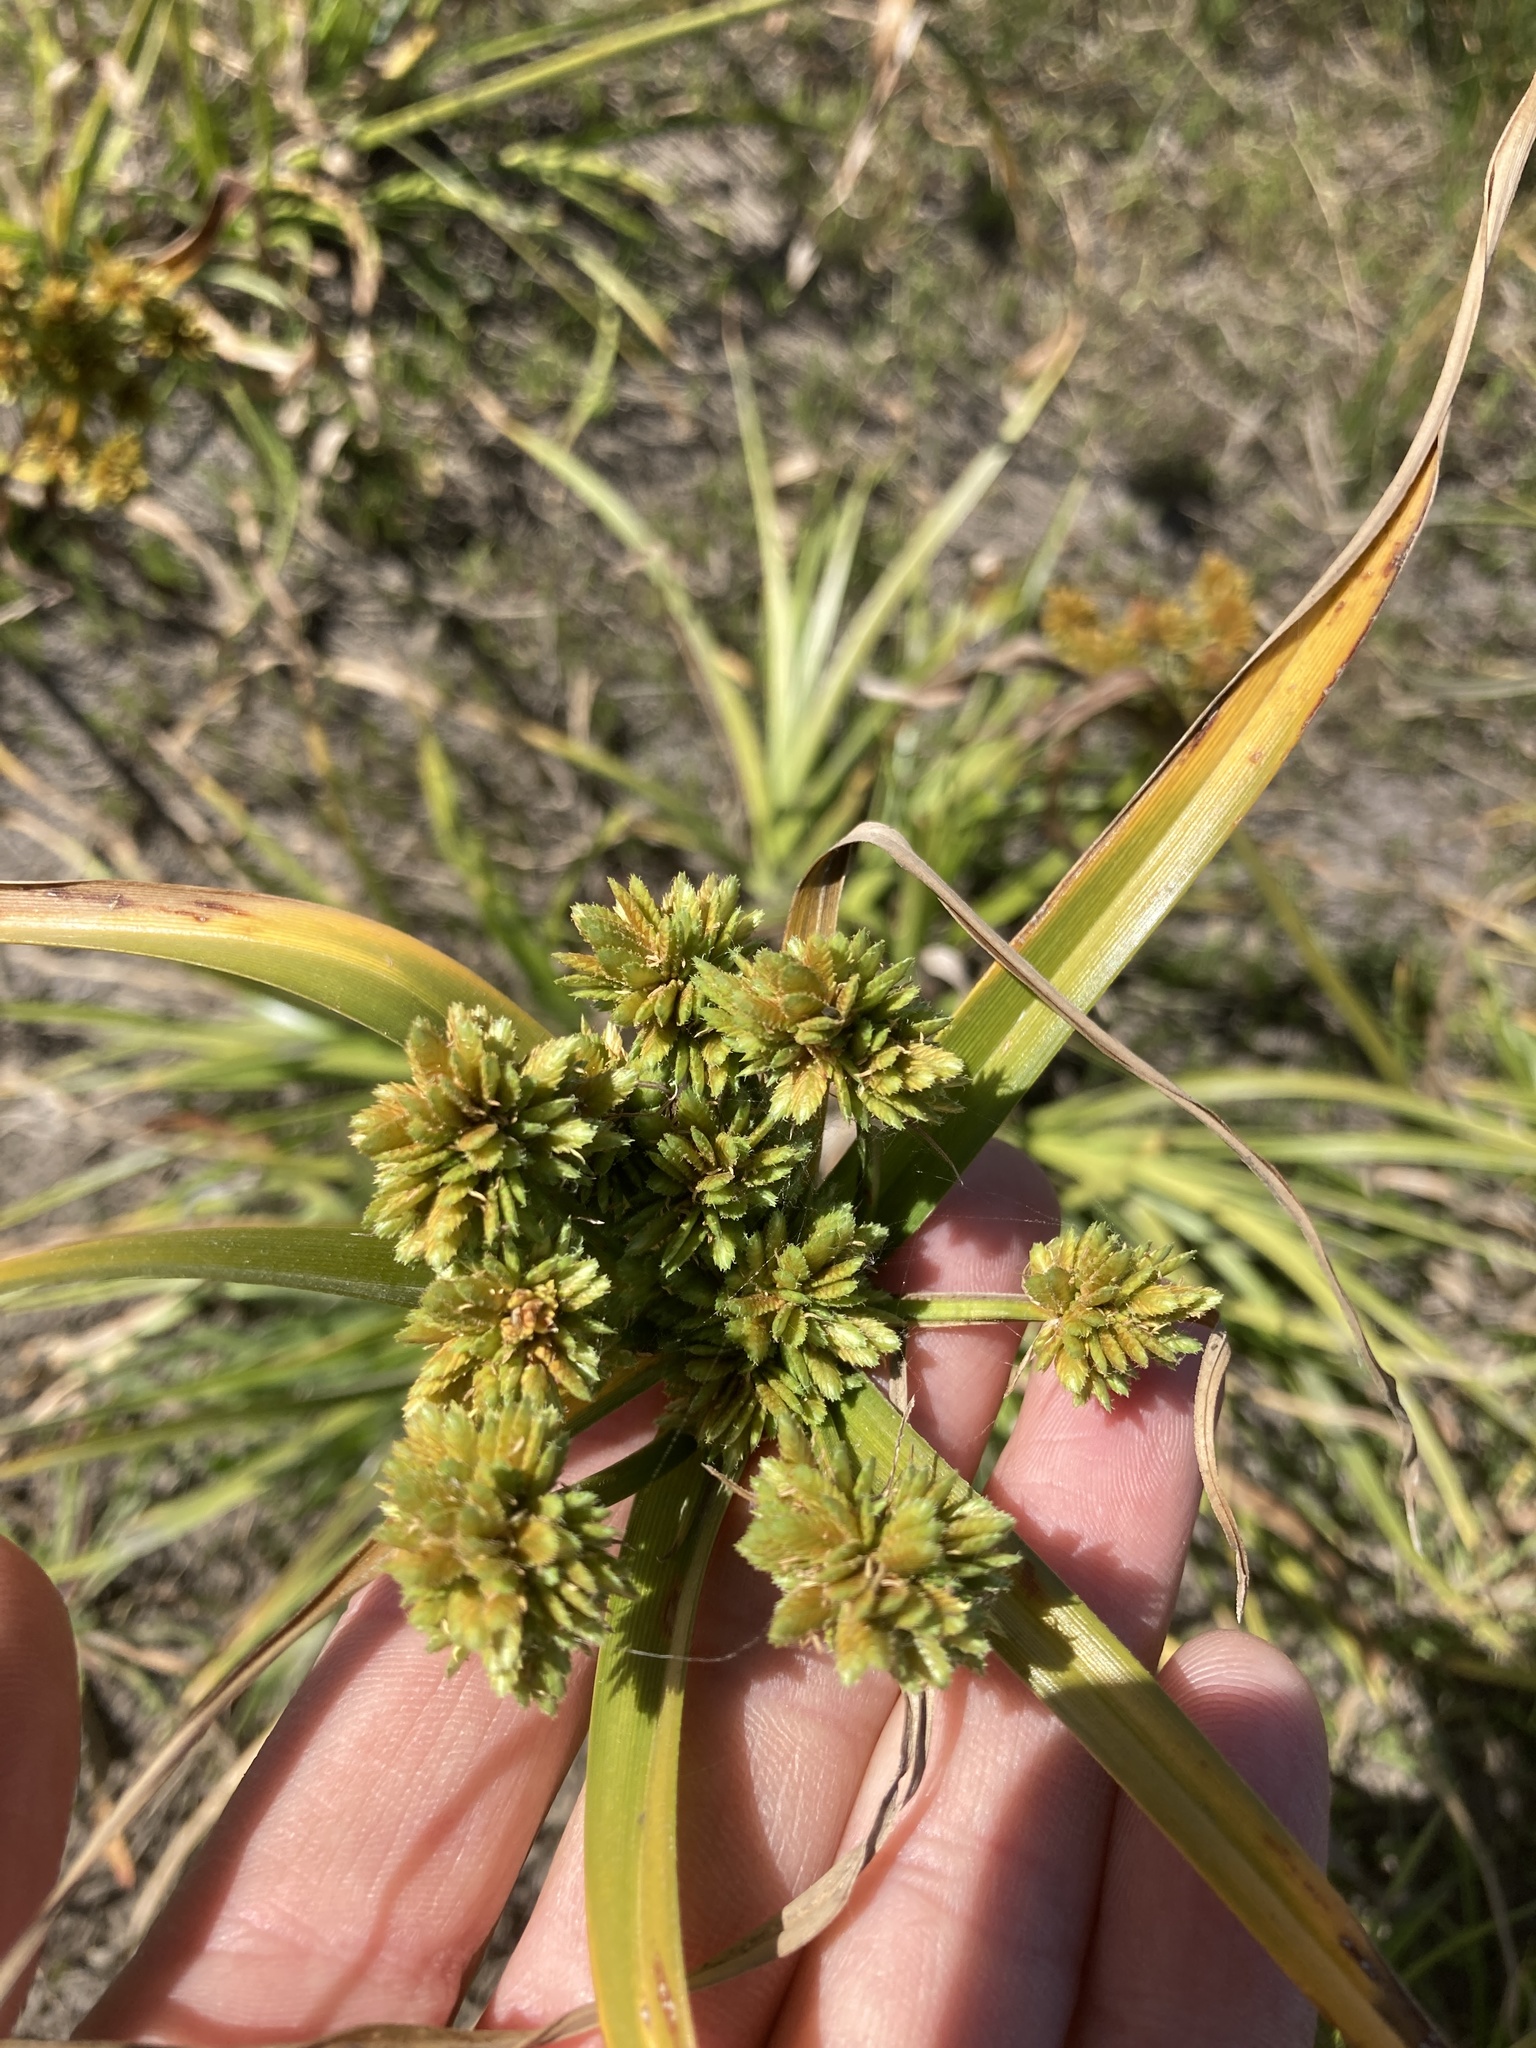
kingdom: Plantae
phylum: Tracheophyta
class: Liliopsida
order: Poales
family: Cyperaceae
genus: Cyperus
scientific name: Cyperus eragrostis
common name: Tall flatsedge
